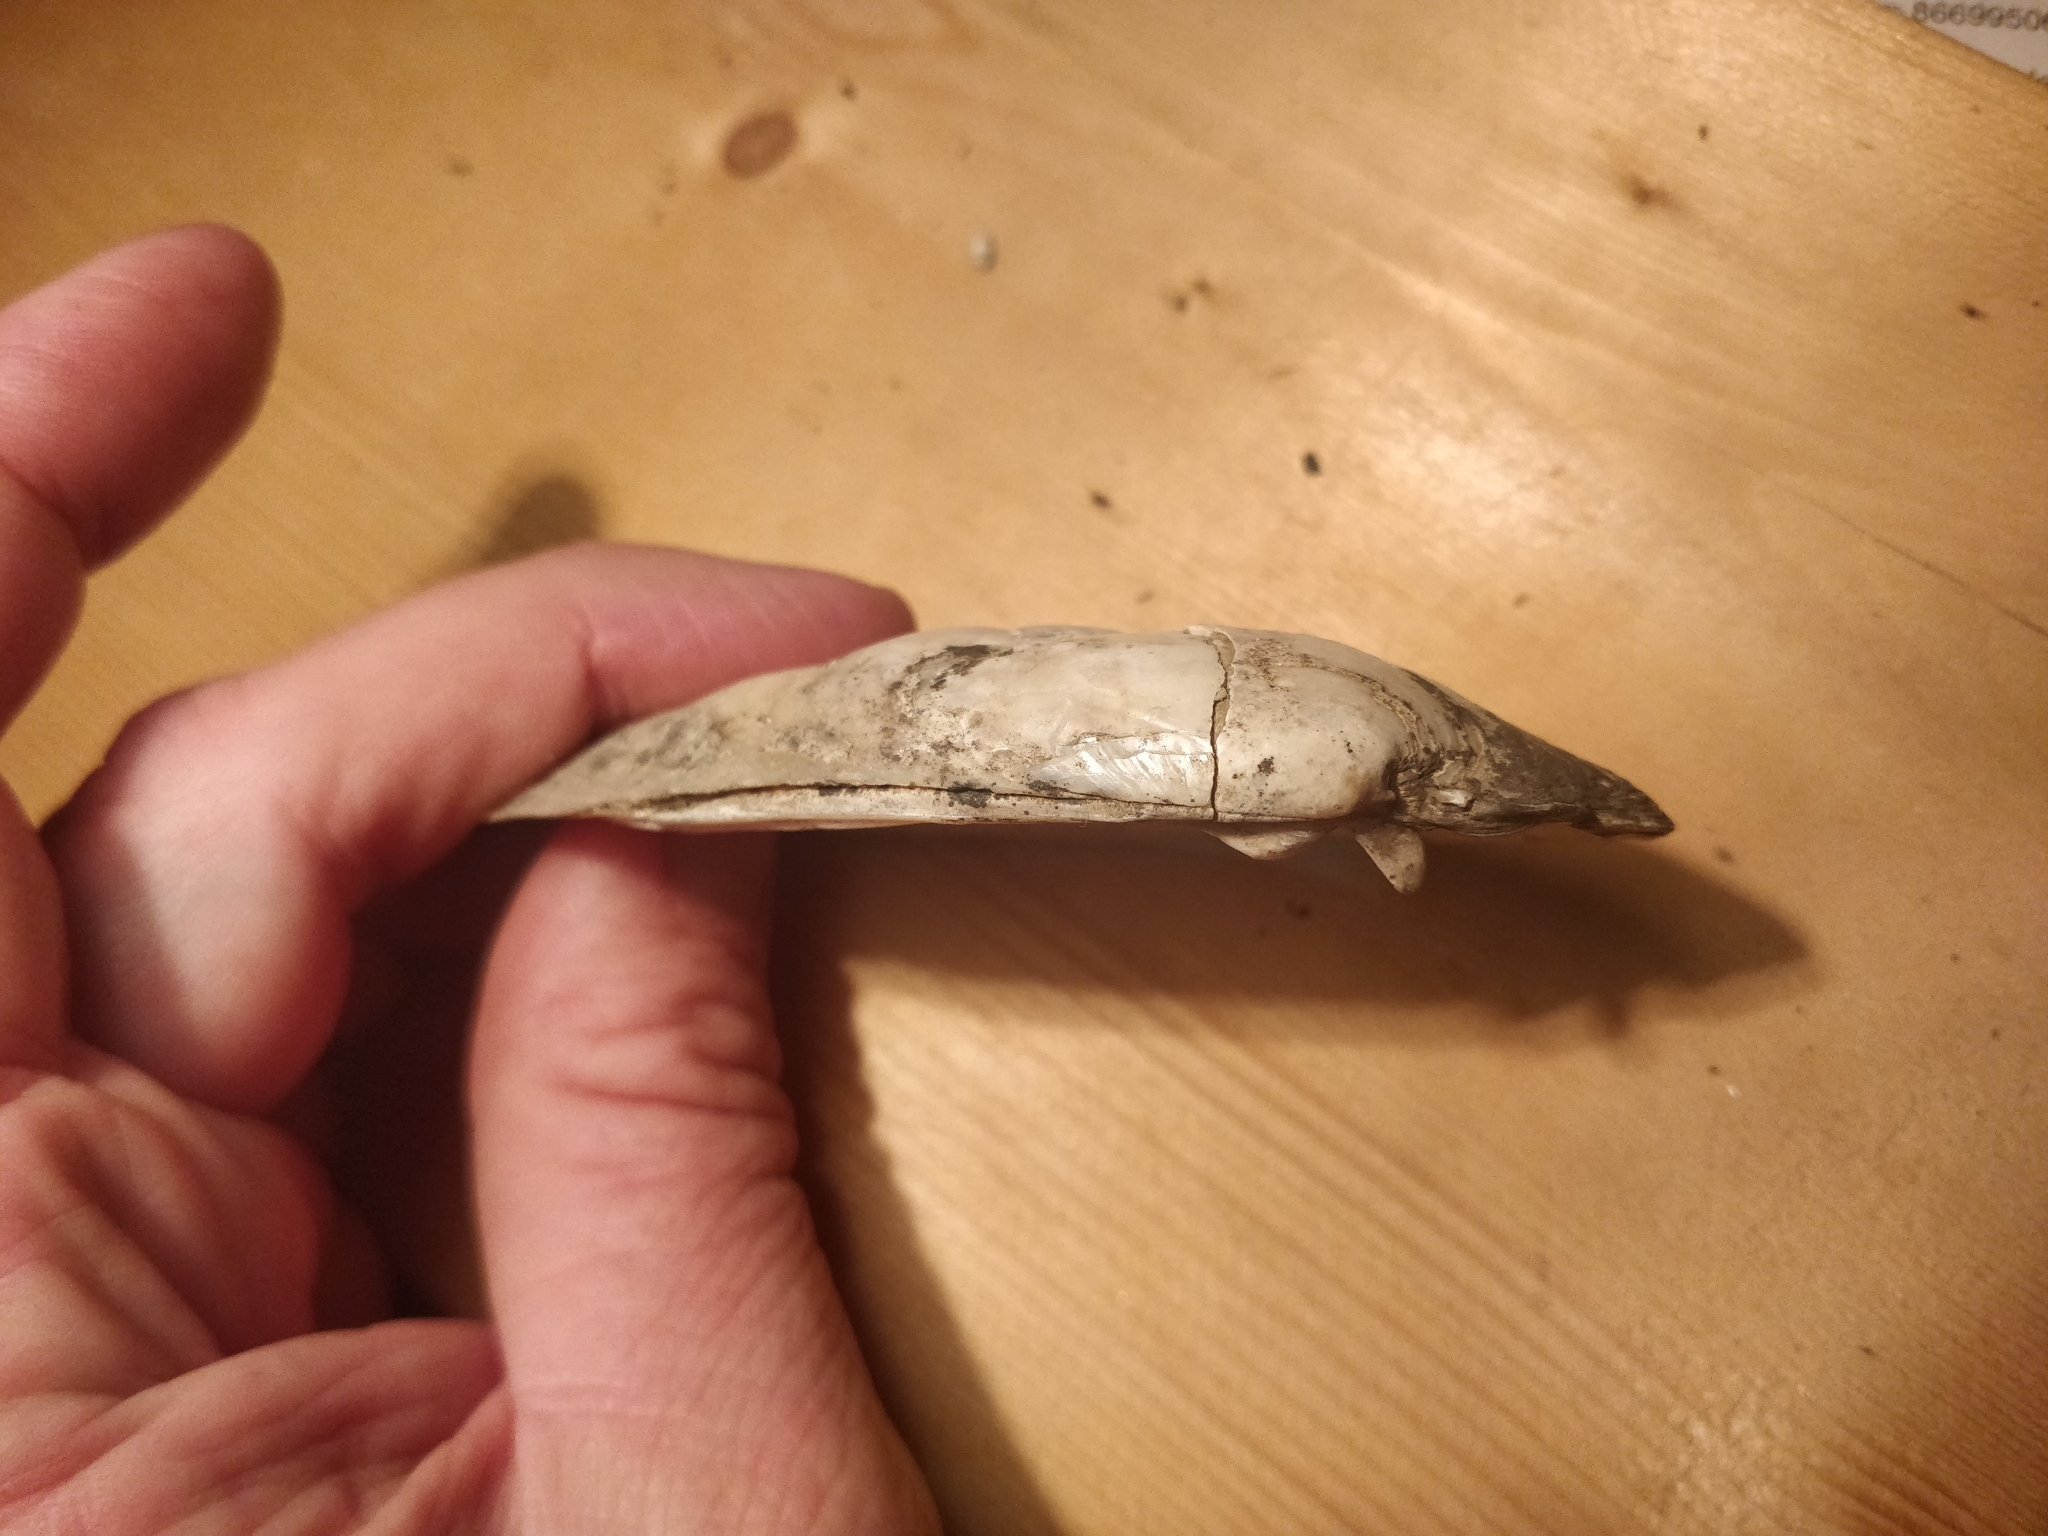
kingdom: Animalia
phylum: Mollusca
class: Bivalvia
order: Unionida
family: Unionidae
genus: Lampsilis
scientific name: Lampsilis siliquoidea
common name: Fatmucket
